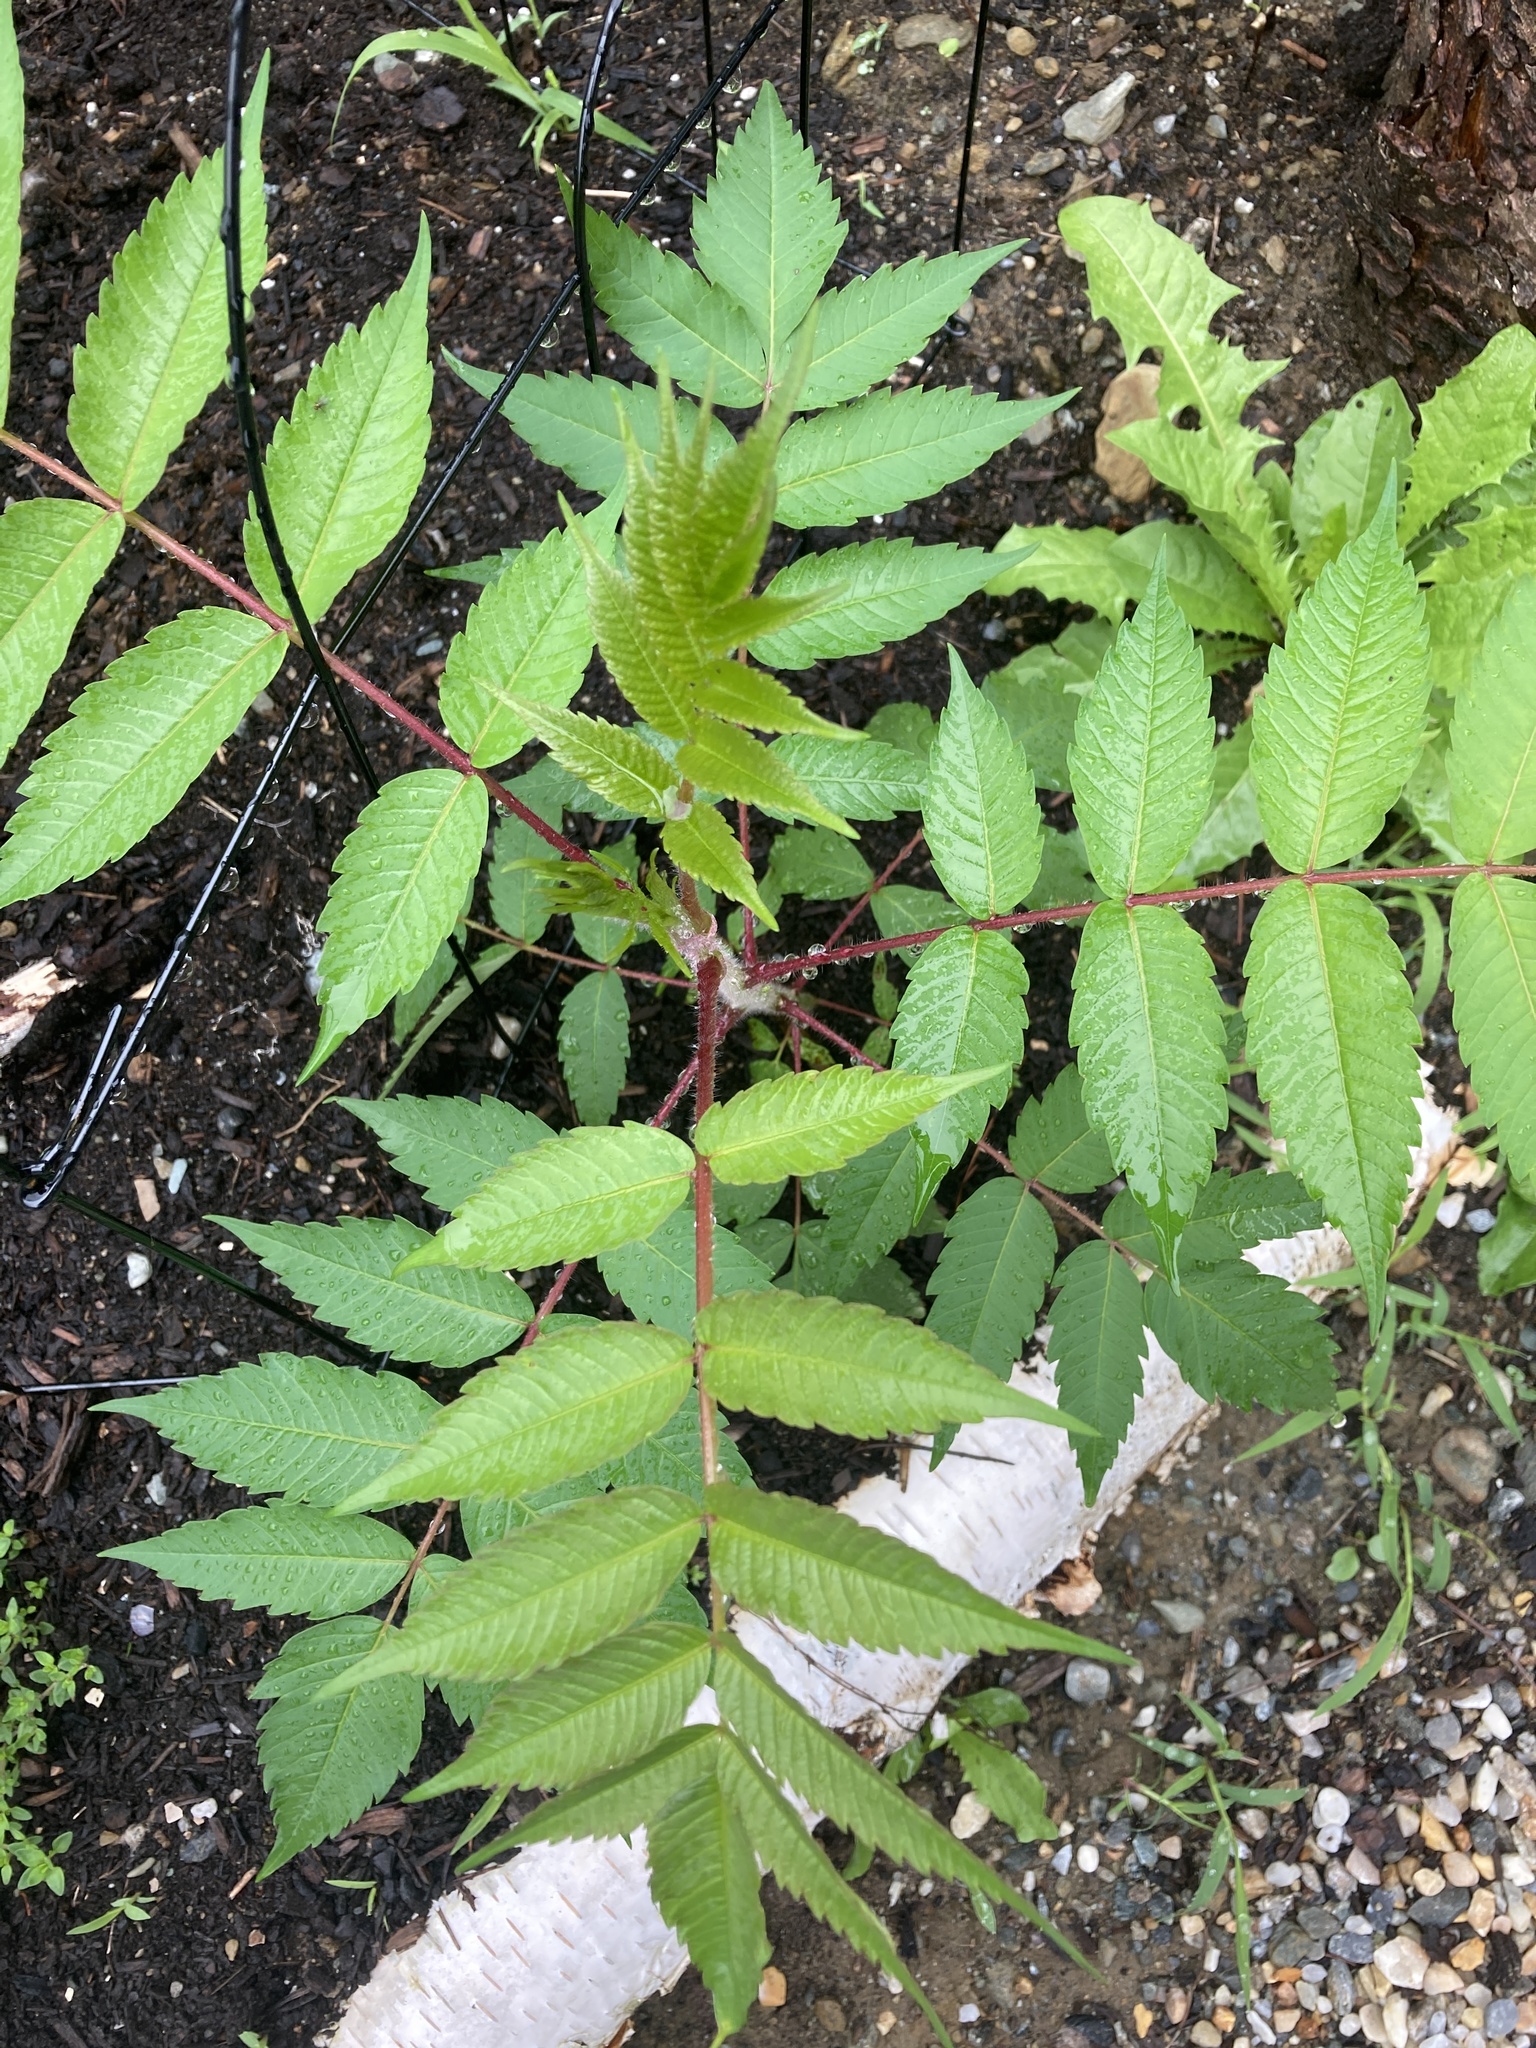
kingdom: Plantae
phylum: Tracheophyta
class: Magnoliopsida
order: Sapindales
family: Anacardiaceae
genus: Rhus
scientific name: Rhus typhina
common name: Staghorn sumac
